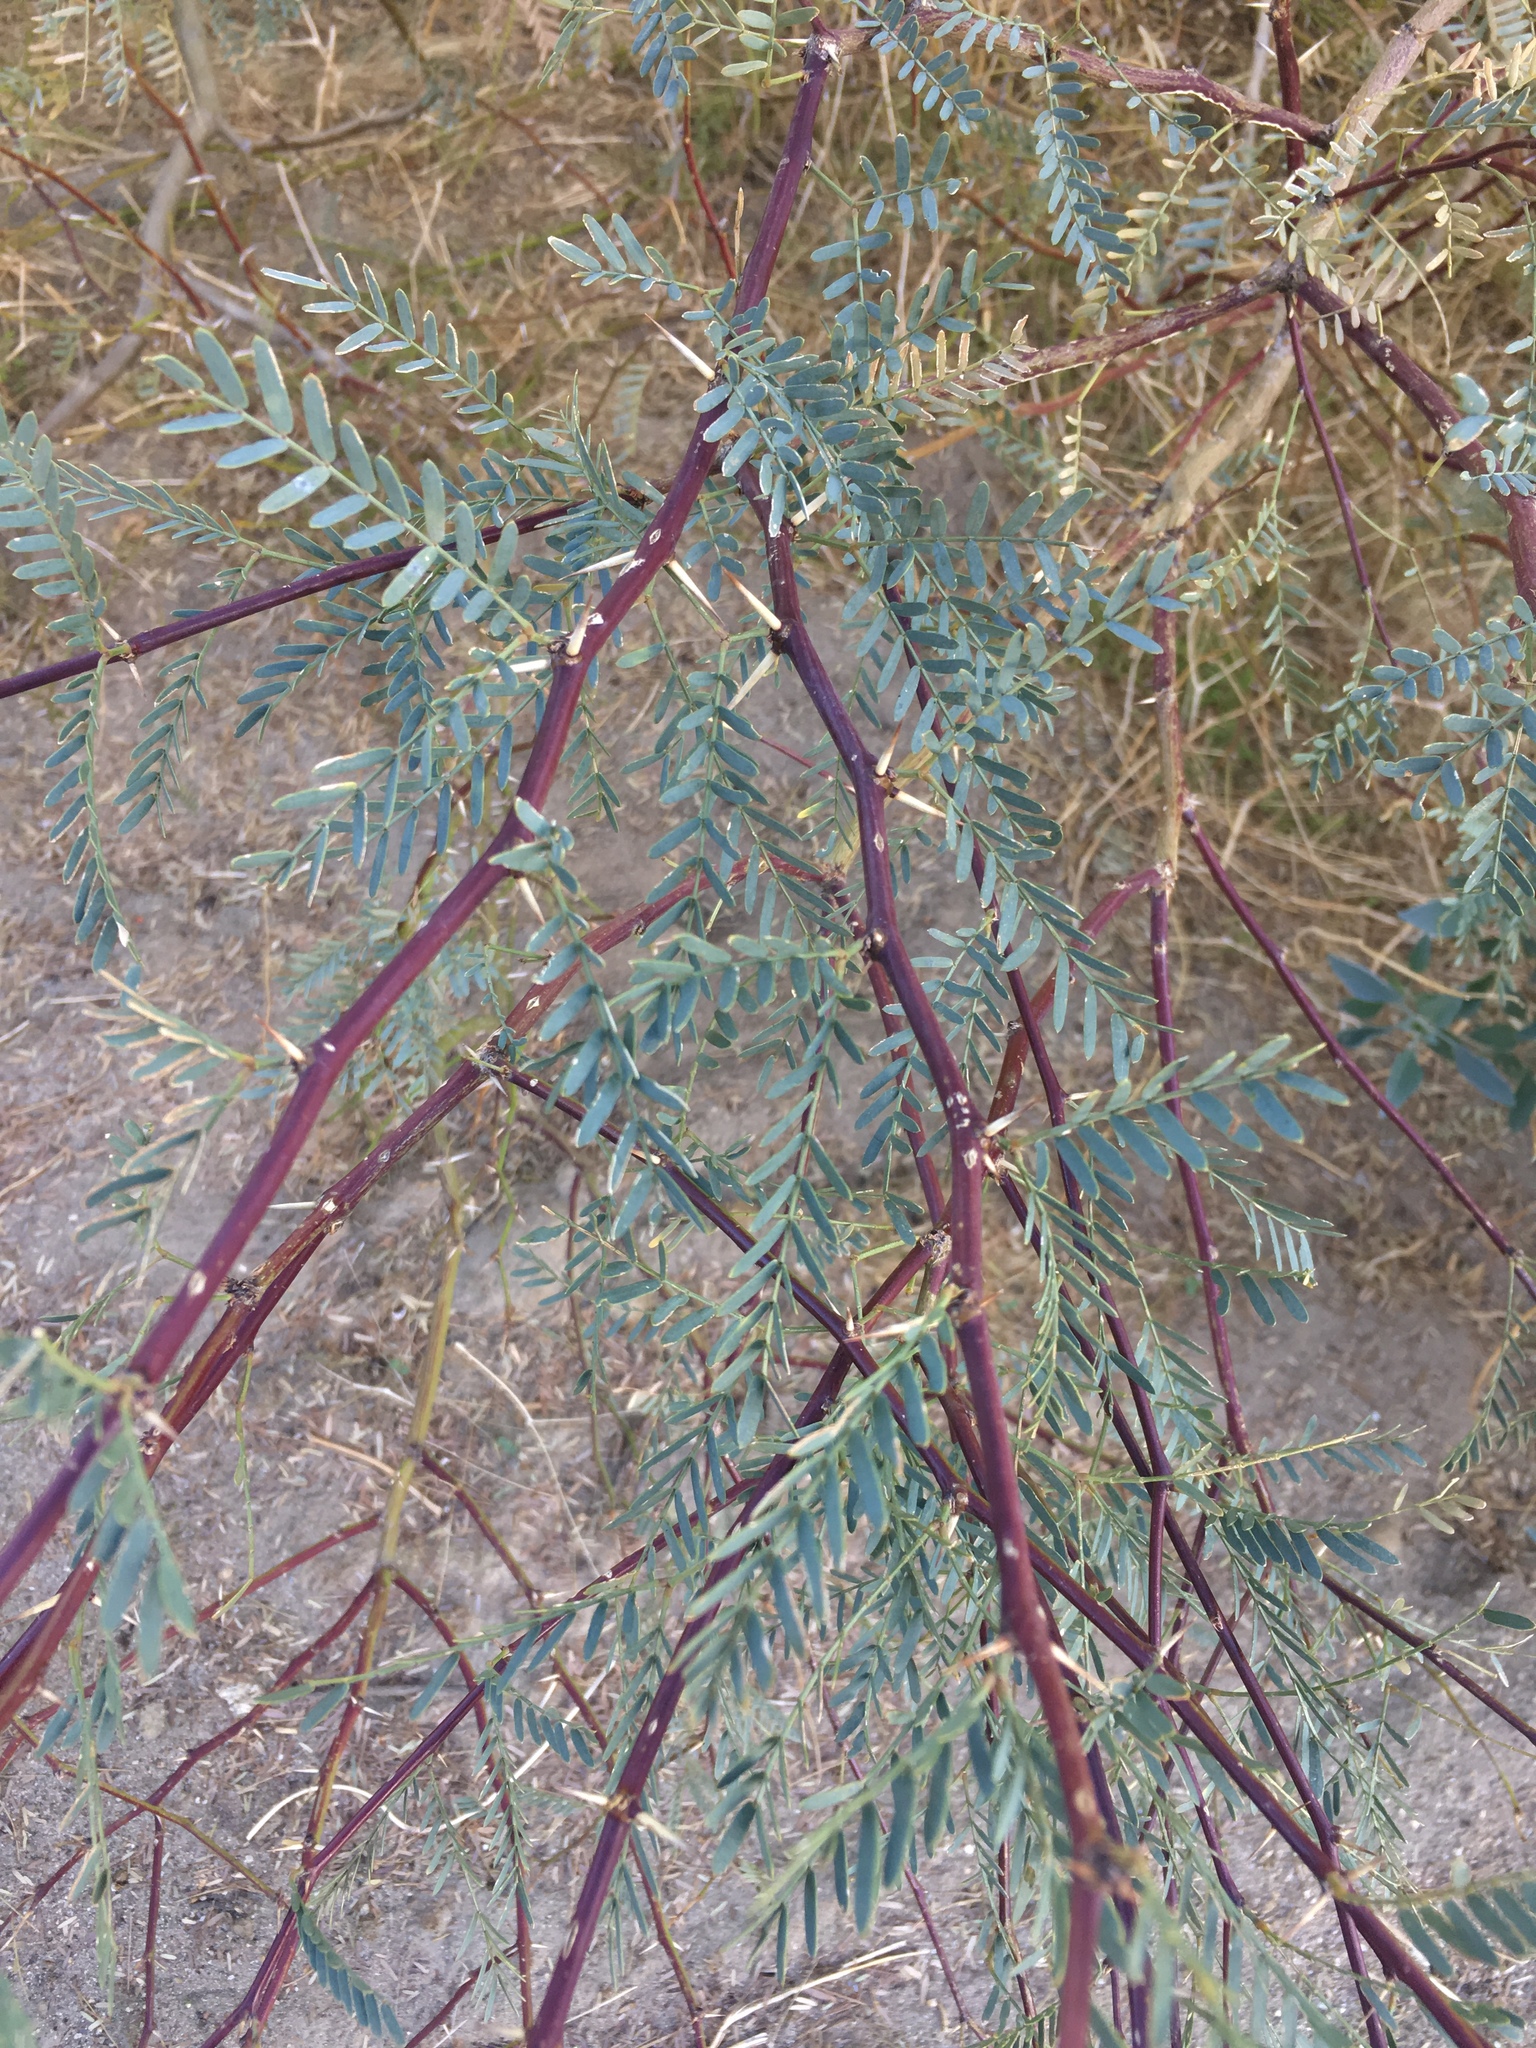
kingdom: Plantae
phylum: Tracheophyta
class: Magnoliopsida
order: Fabales
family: Fabaceae
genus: Prosopis
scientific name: Prosopis pubescens
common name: Screw-bean
